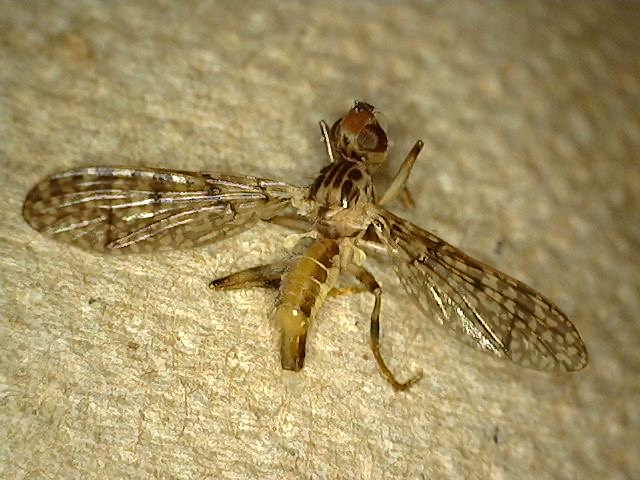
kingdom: Animalia
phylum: Arthropoda
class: Insecta
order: Diptera
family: Pyrgotidae
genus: Boreothrinax
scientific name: Boreothrinax
